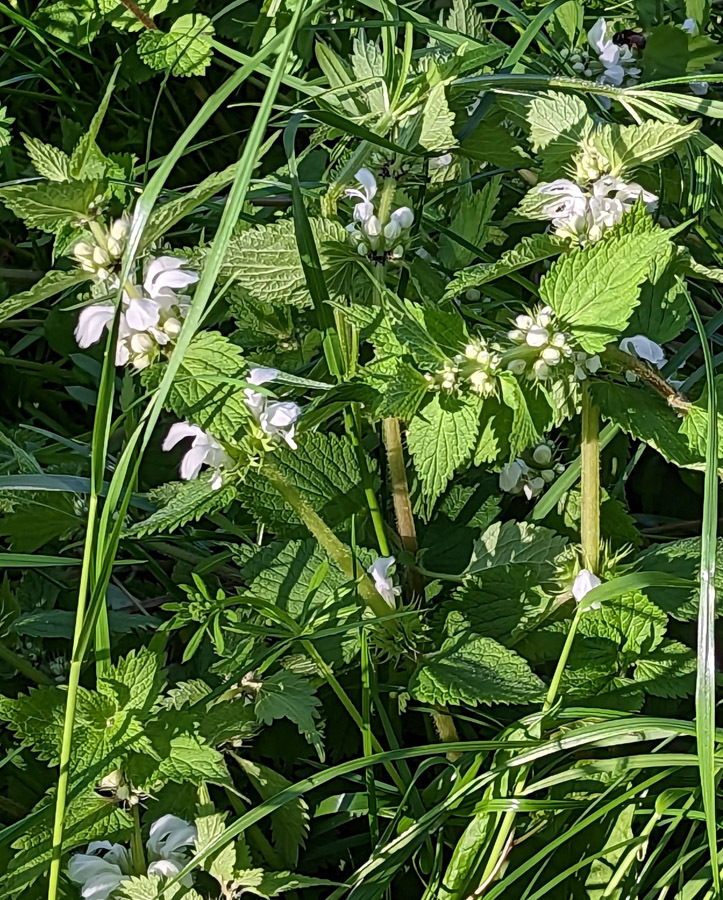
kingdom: Plantae
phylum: Tracheophyta
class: Magnoliopsida
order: Lamiales
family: Lamiaceae
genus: Lamium
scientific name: Lamium album
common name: White dead-nettle
